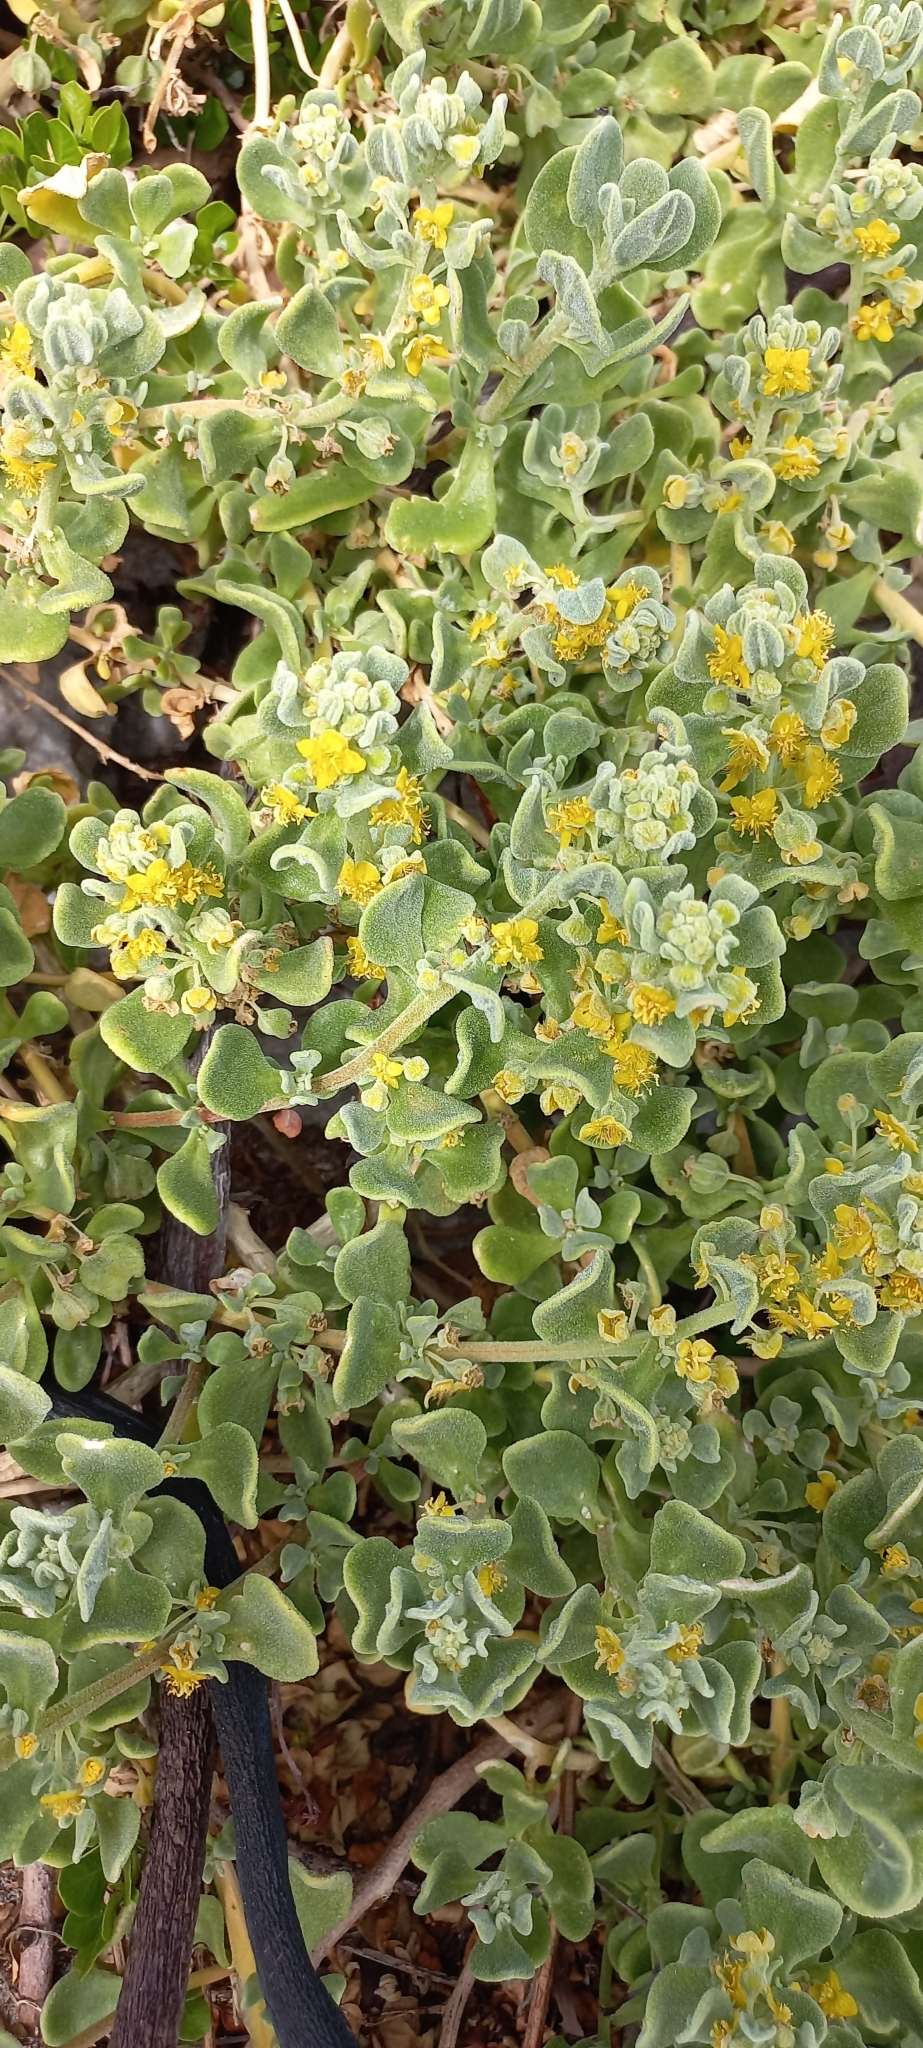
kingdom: Plantae
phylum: Tracheophyta
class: Magnoliopsida
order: Caryophyllales
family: Aizoaceae
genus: Tetragonia
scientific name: Tetragonia decumbens
